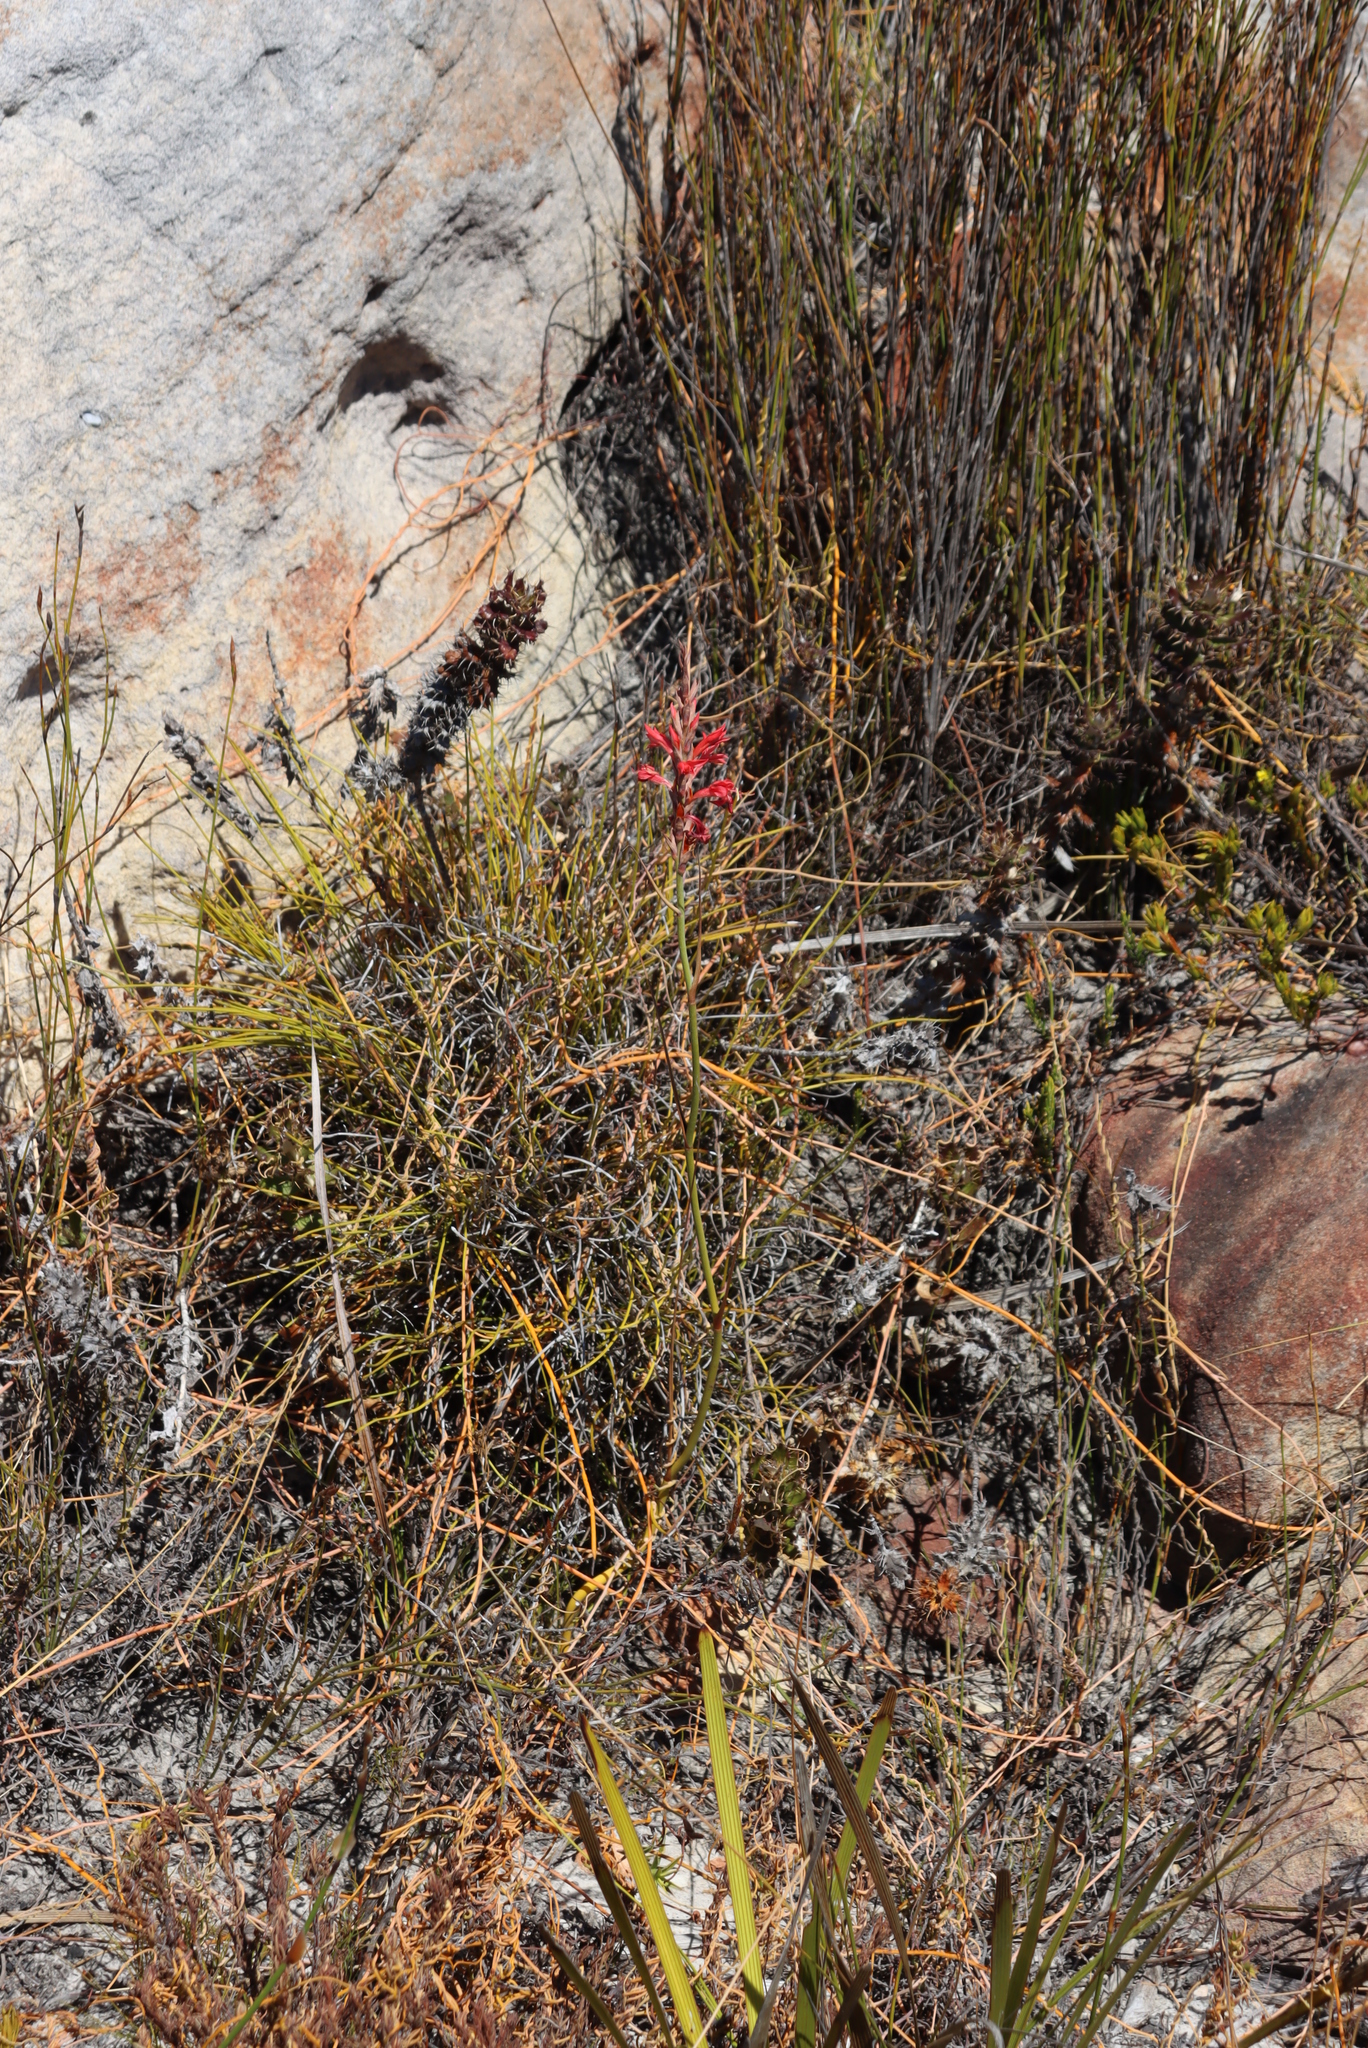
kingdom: Plantae
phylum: Tracheophyta
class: Liliopsida
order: Asparagales
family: Iridaceae
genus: Tritoniopsis
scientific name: Tritoniopsis triticea
